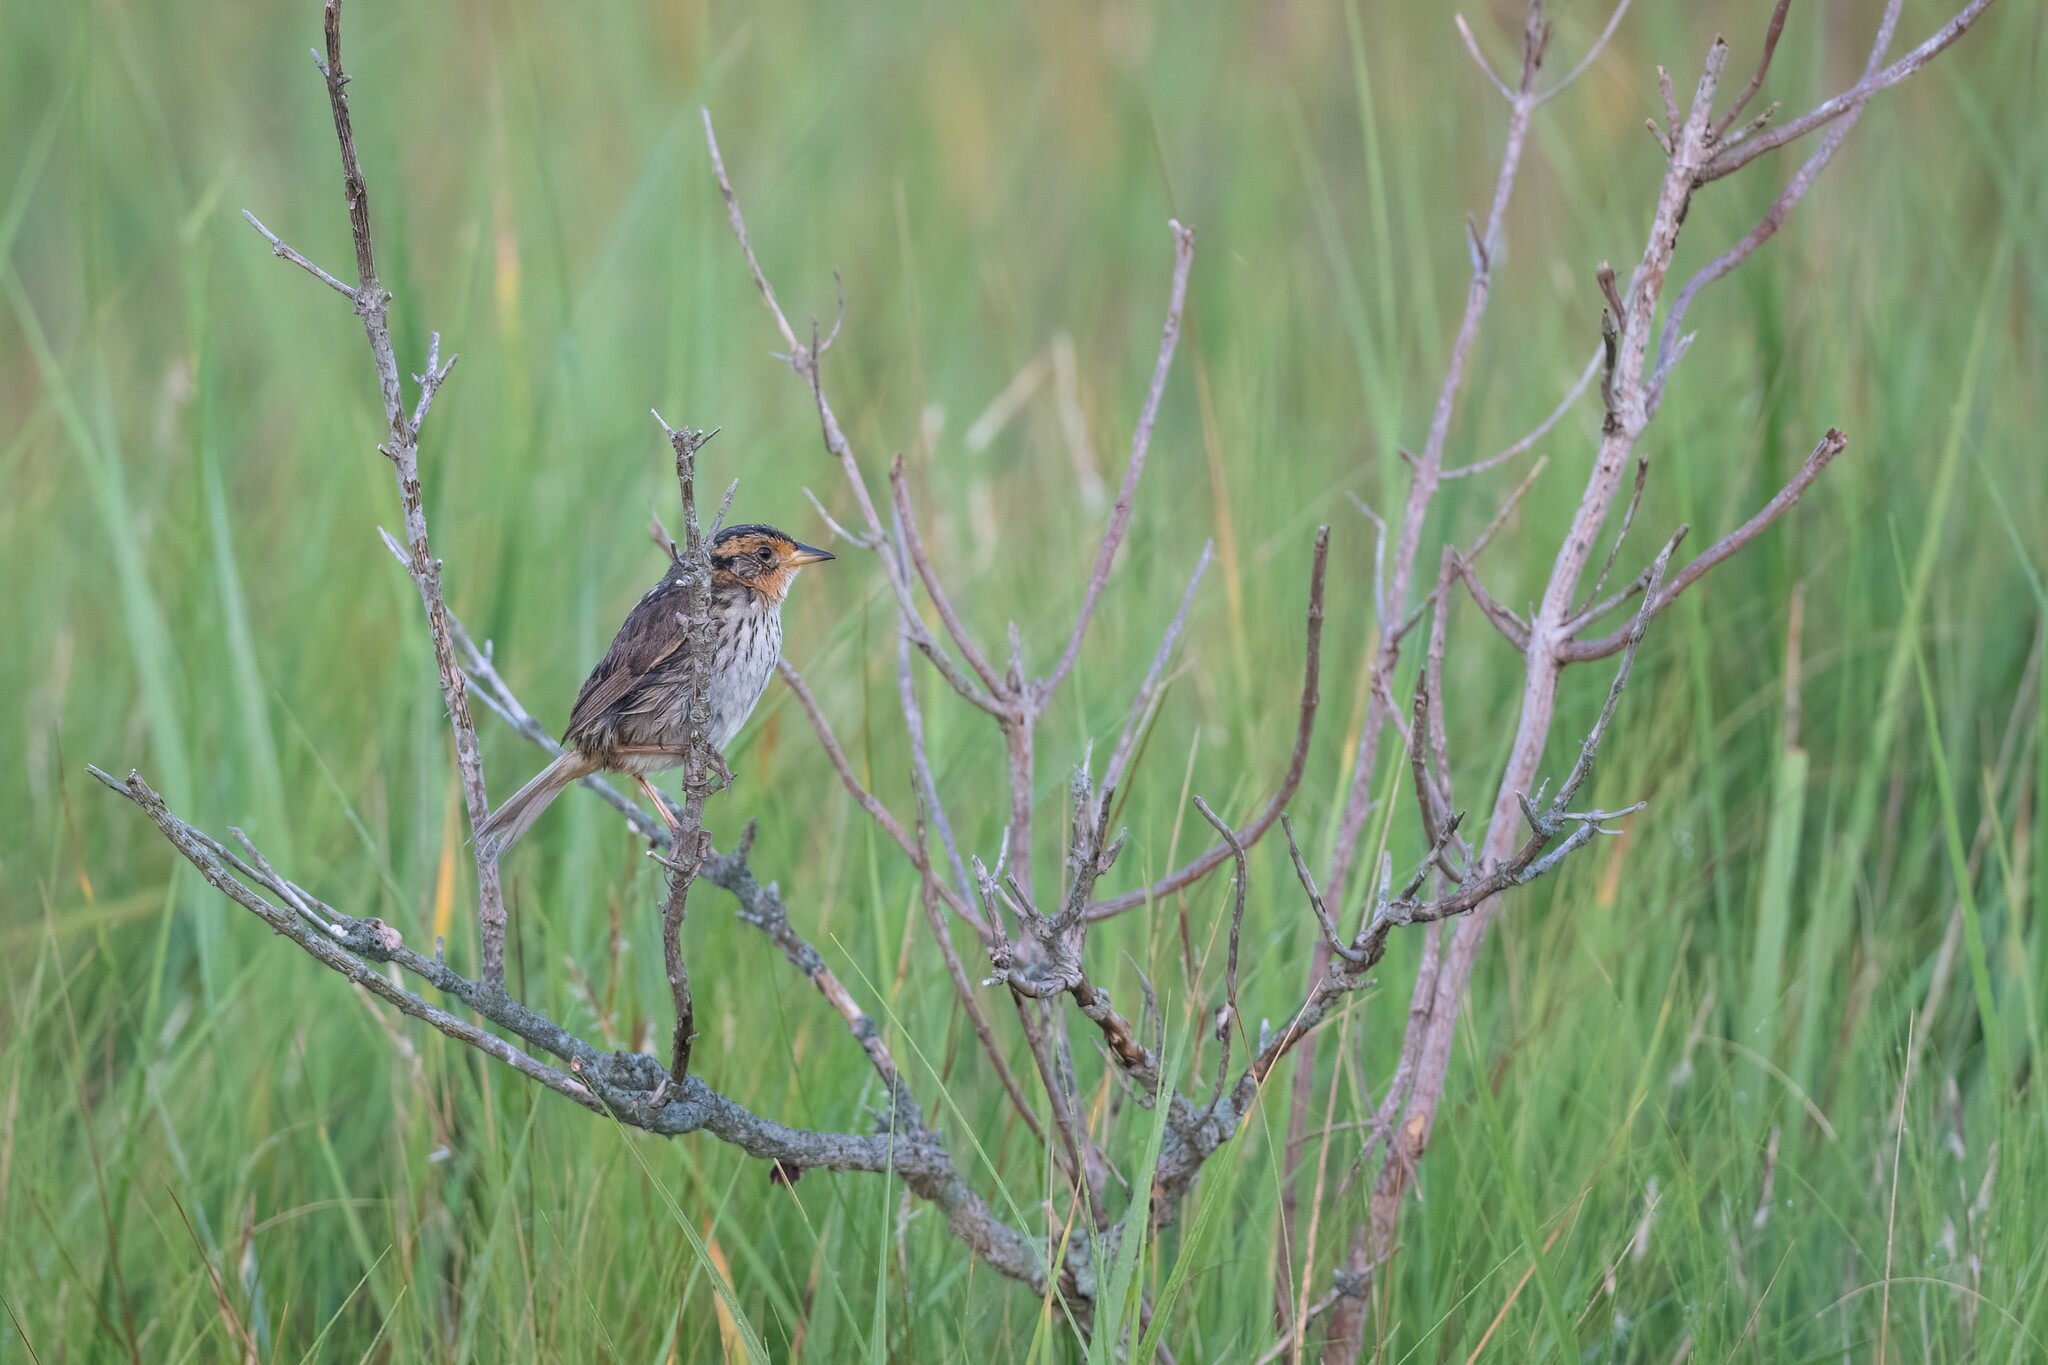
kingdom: Animalia
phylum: Chordata
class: Aves
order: Passeriformes
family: Passerellidae
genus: Ammospiza
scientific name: Ammospiza caudacuta
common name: Saltmarsh sparrow
